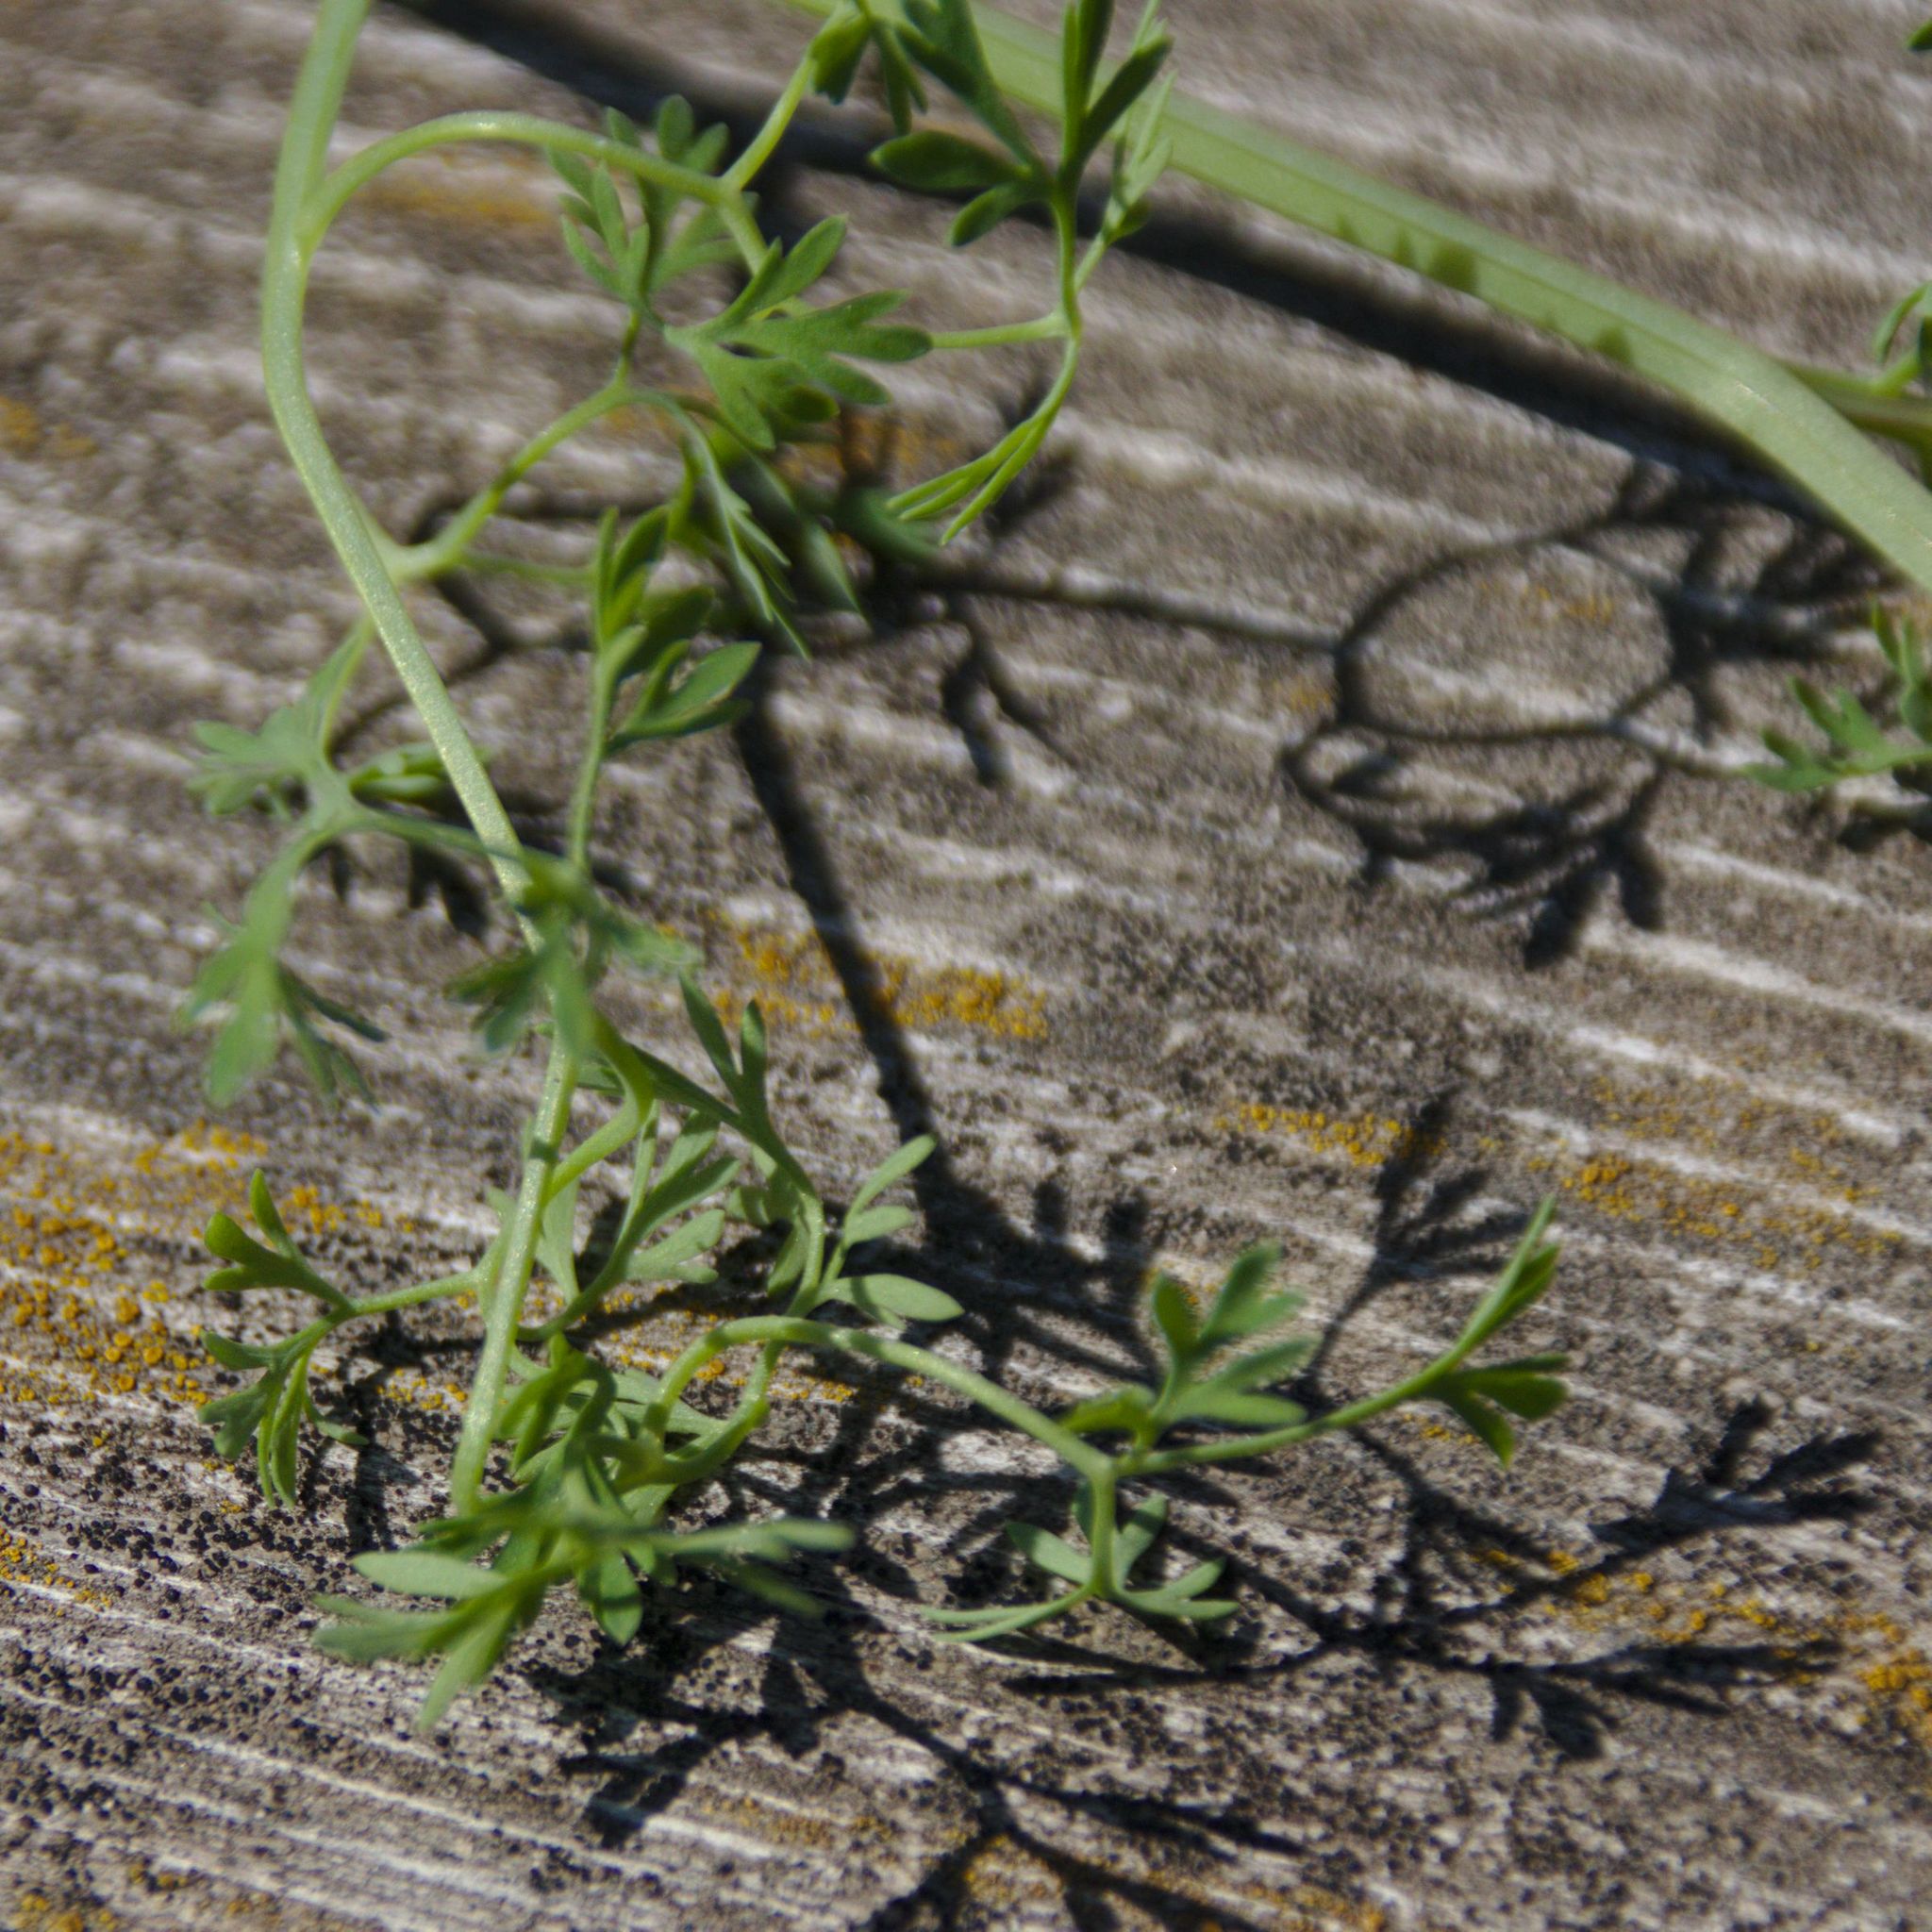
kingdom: Plantae
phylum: Tracheophyta
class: Magnoliopsida
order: Ranunculales
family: Papaveraceae
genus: Fumaria
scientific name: Fumaria officinalis
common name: Common fumitory
